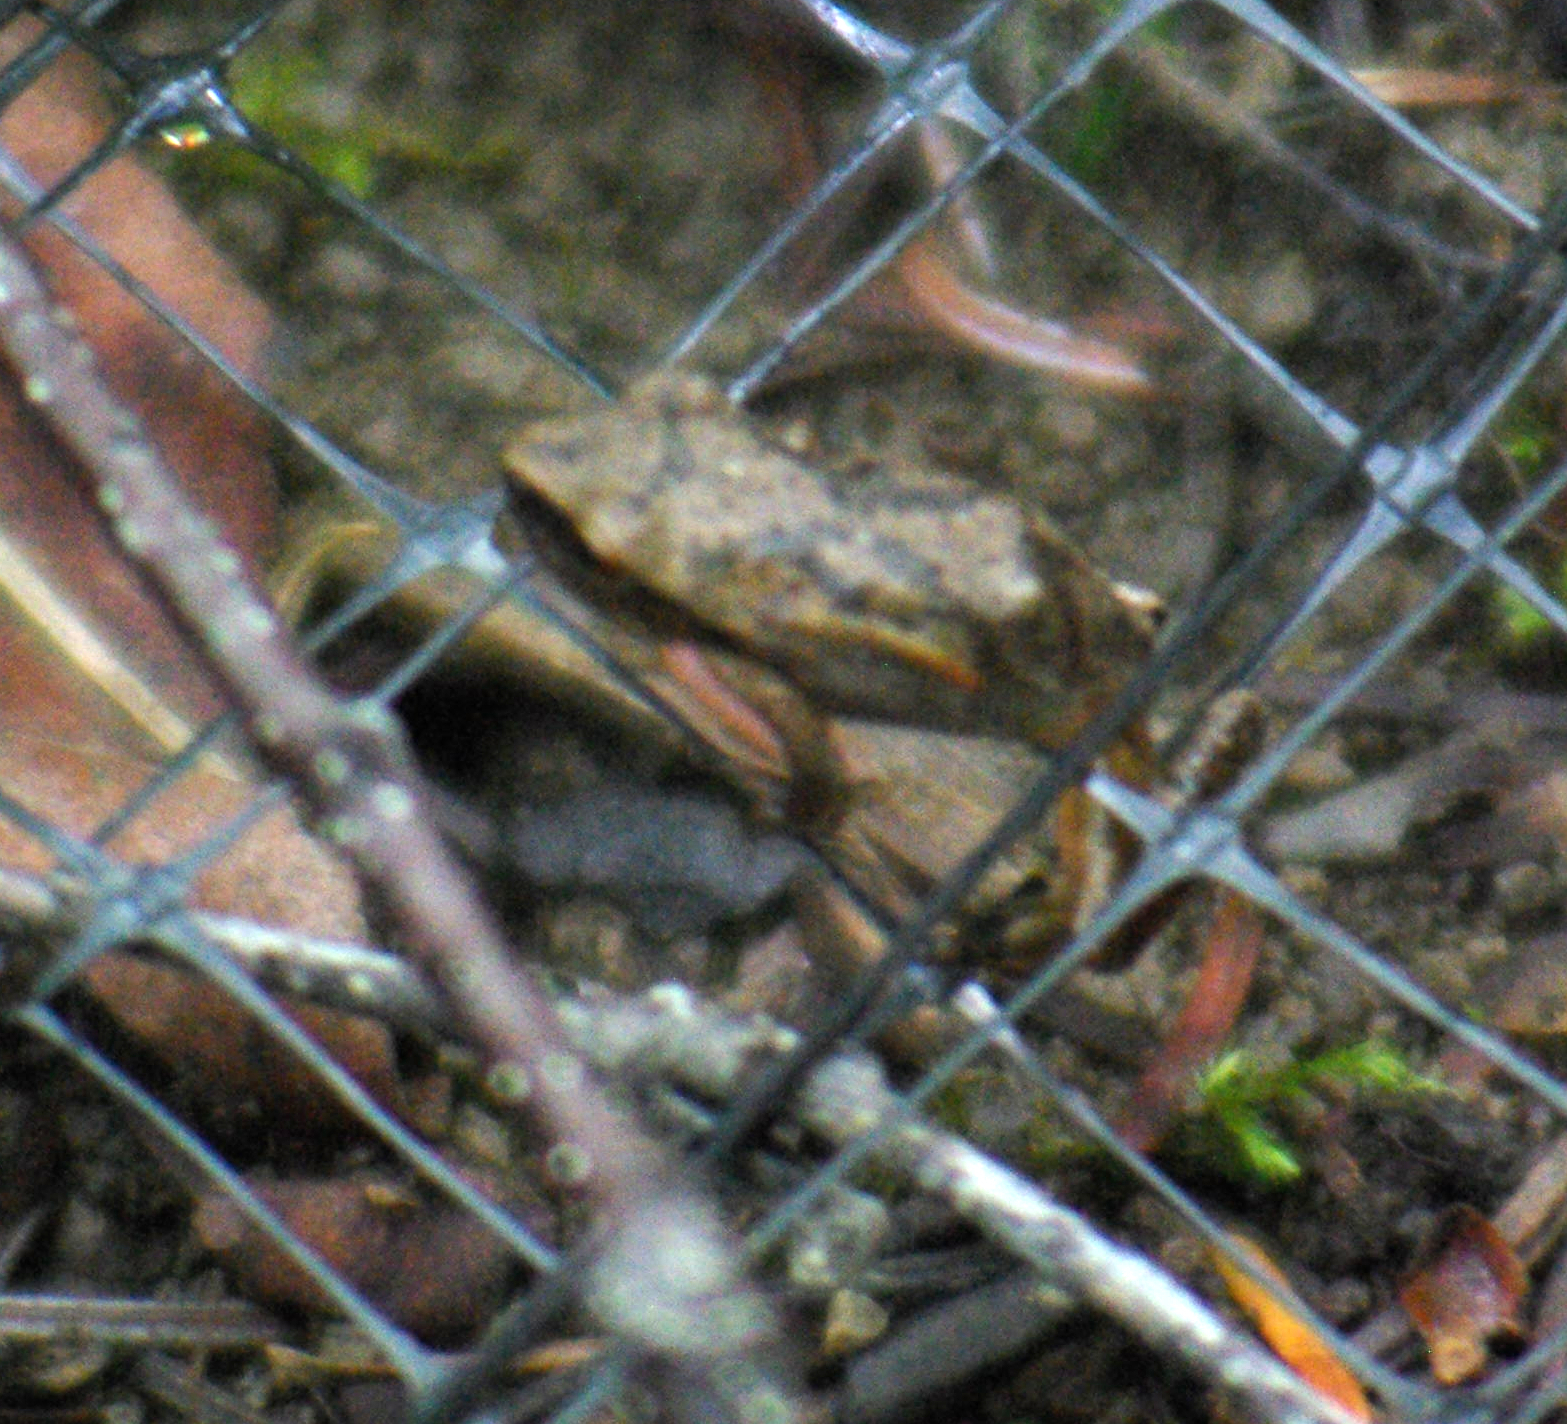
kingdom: Animalia
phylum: Chordata
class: Amphibia
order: Anura
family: Hylidae
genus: Pseudacris
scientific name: Pseudacris crucifer
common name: Spring peeper
